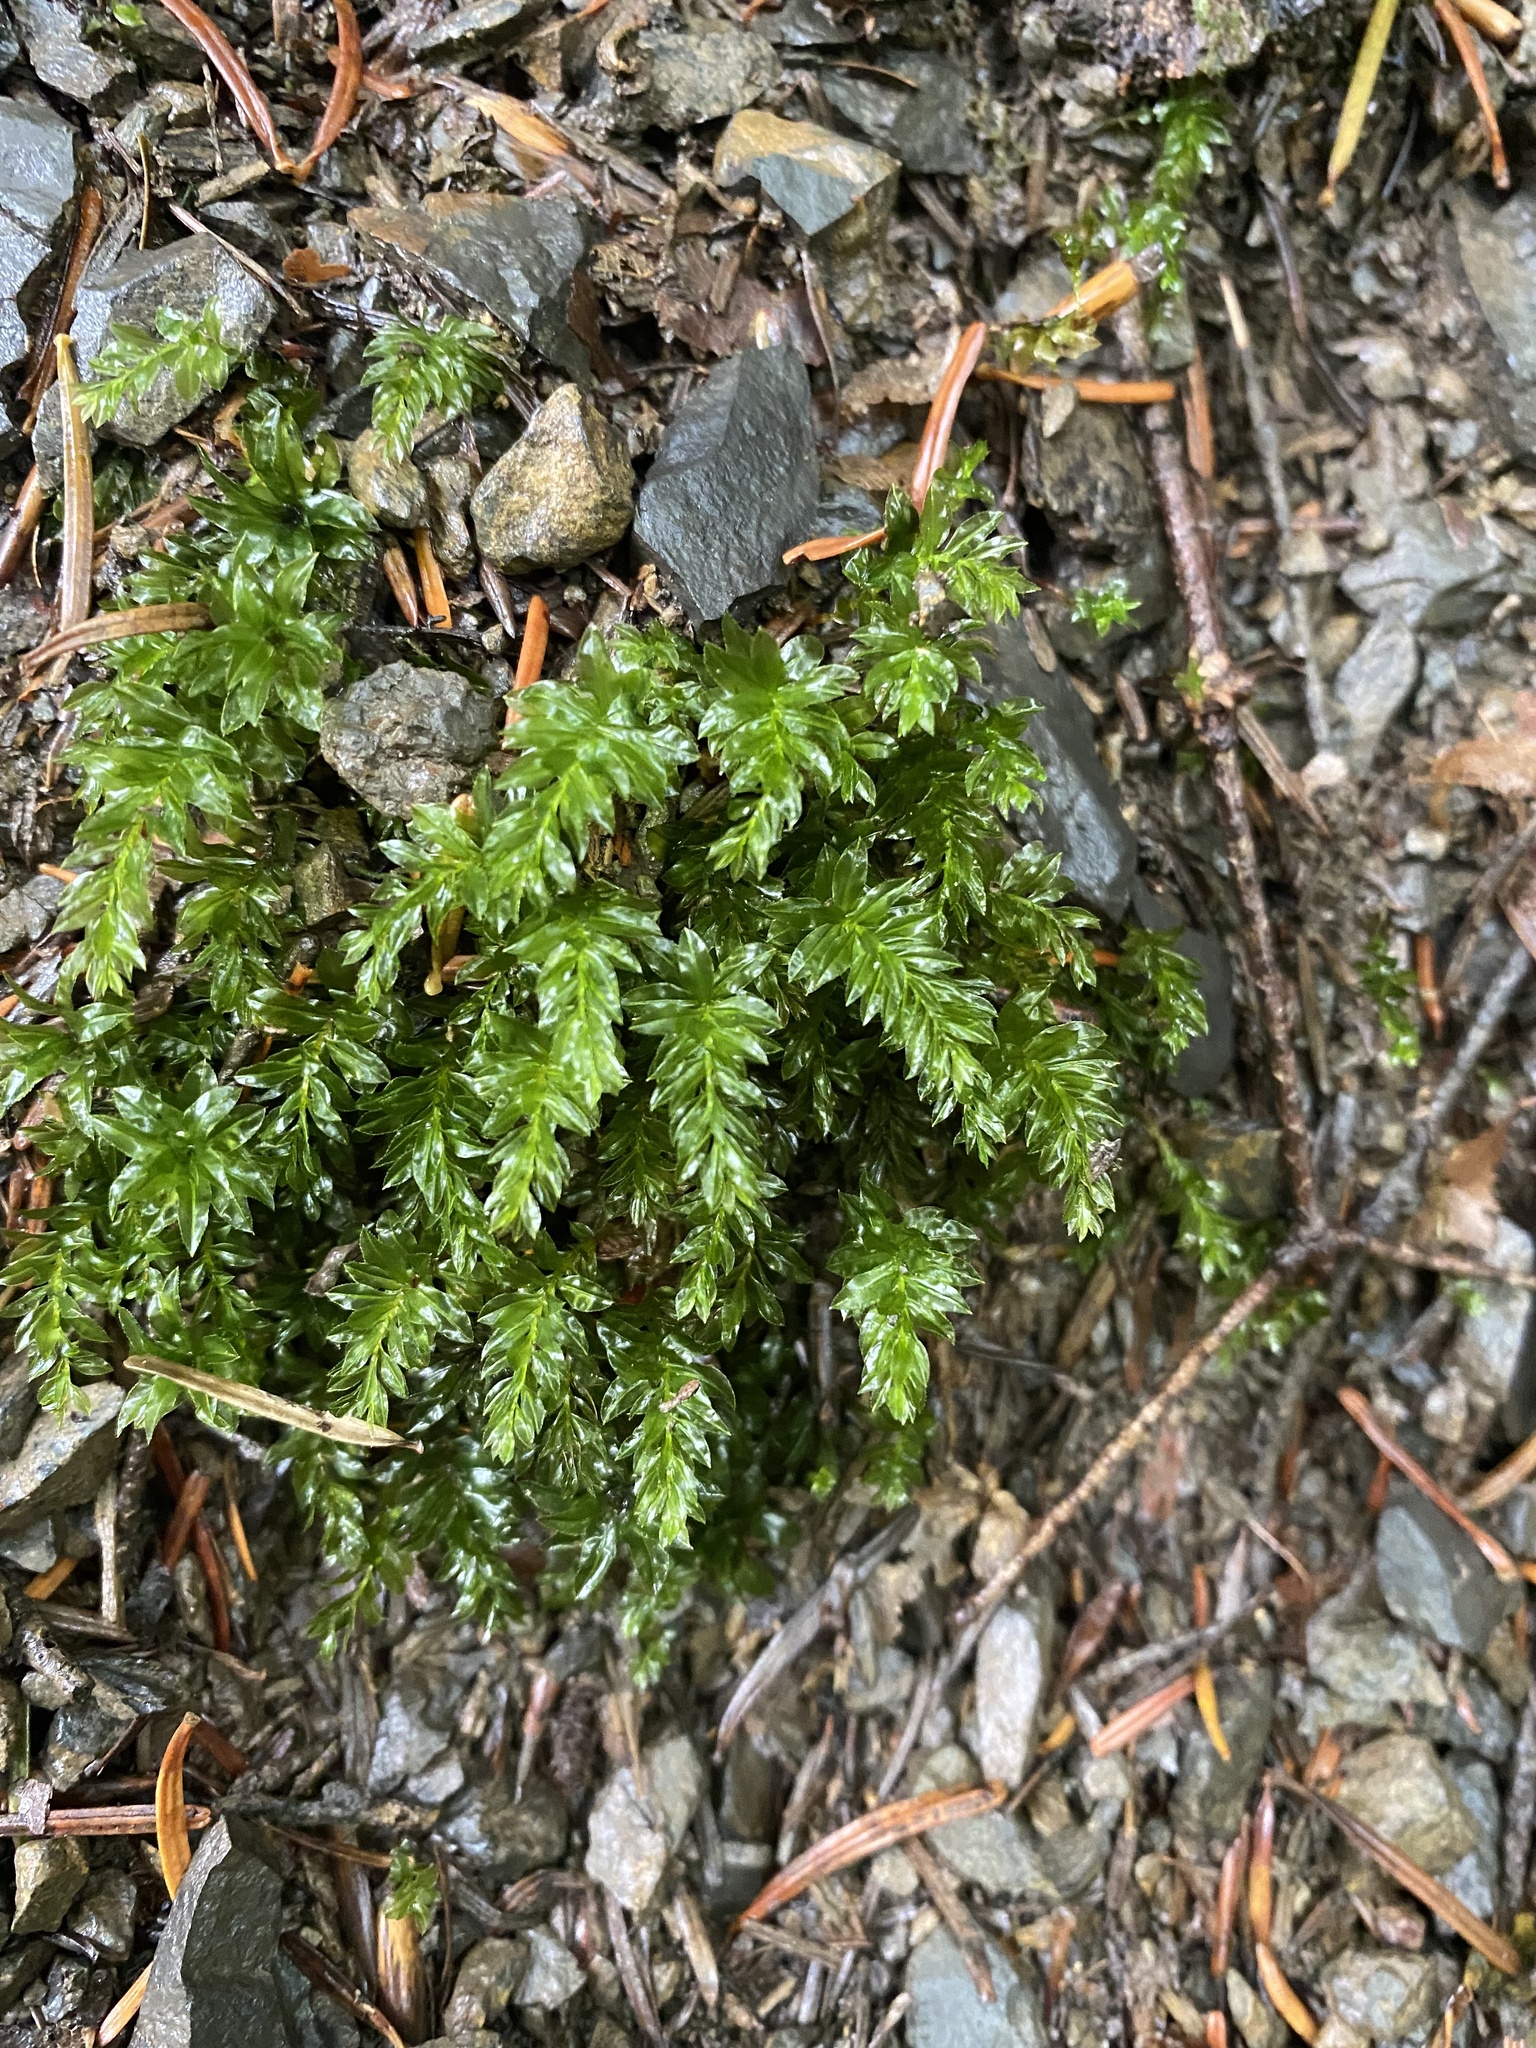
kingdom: Plantae
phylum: Bryophyta
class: Bryopsida
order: Bryales
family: Mniaceae
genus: Mnium
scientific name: Mnium hornum
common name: Swan's-neck leafy moss
